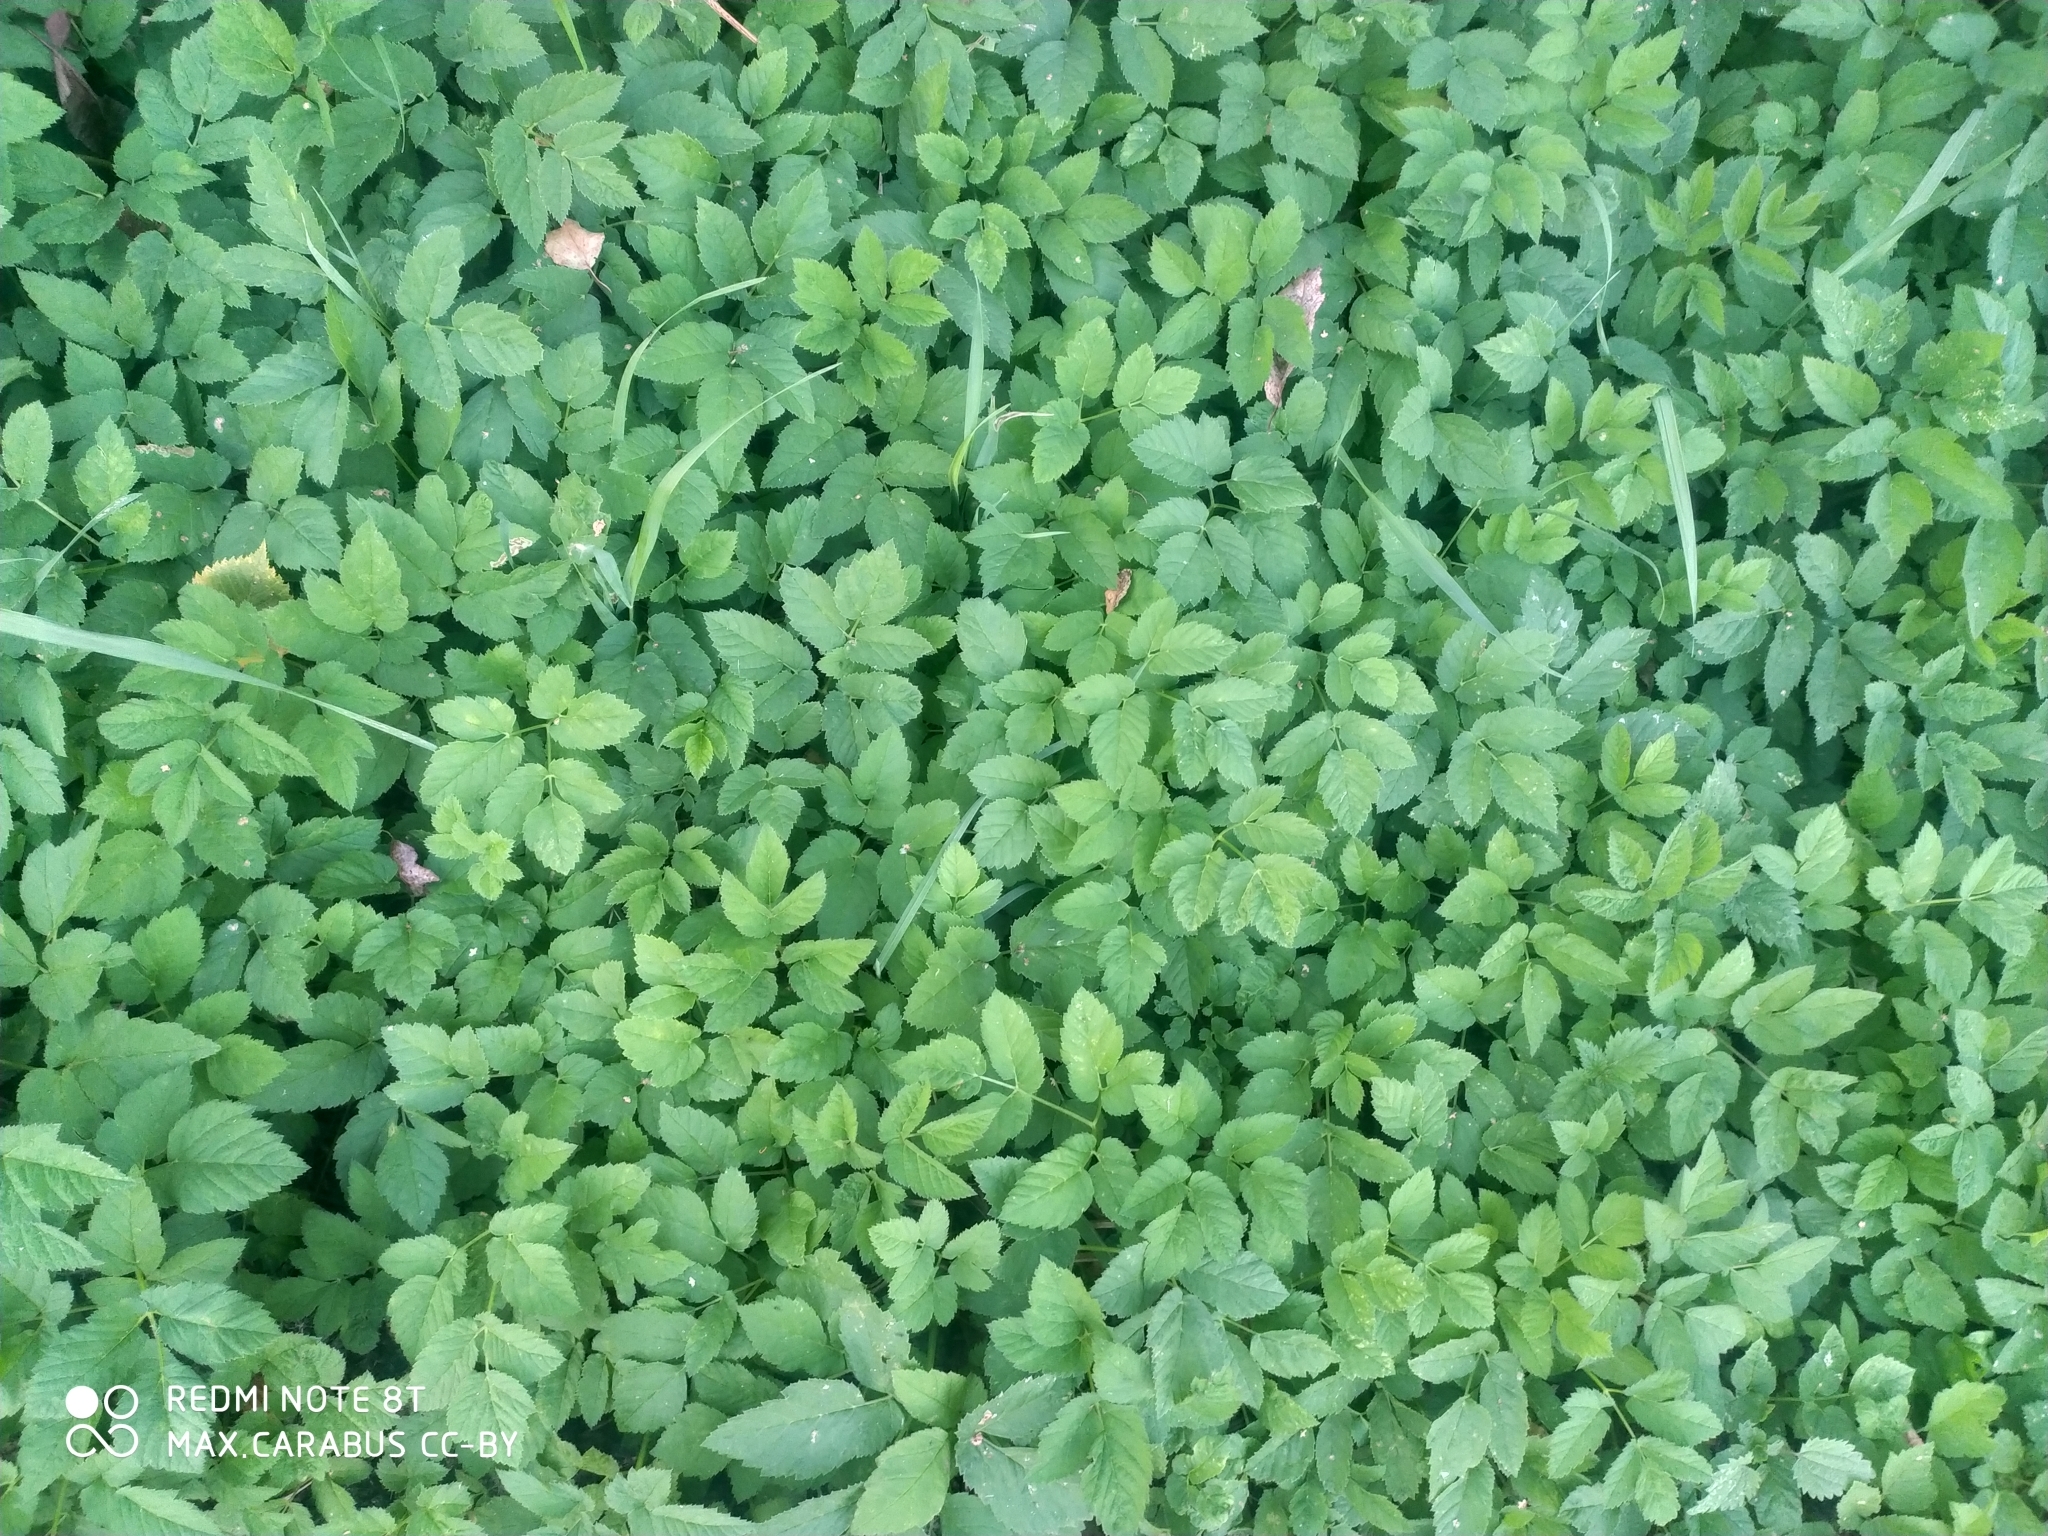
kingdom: Plantae
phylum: Tracheophyta
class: Magnoliopsida
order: Apiales
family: Apiaceae
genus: Aegopodium
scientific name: Aegopodium podagraria
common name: Ground-elder
